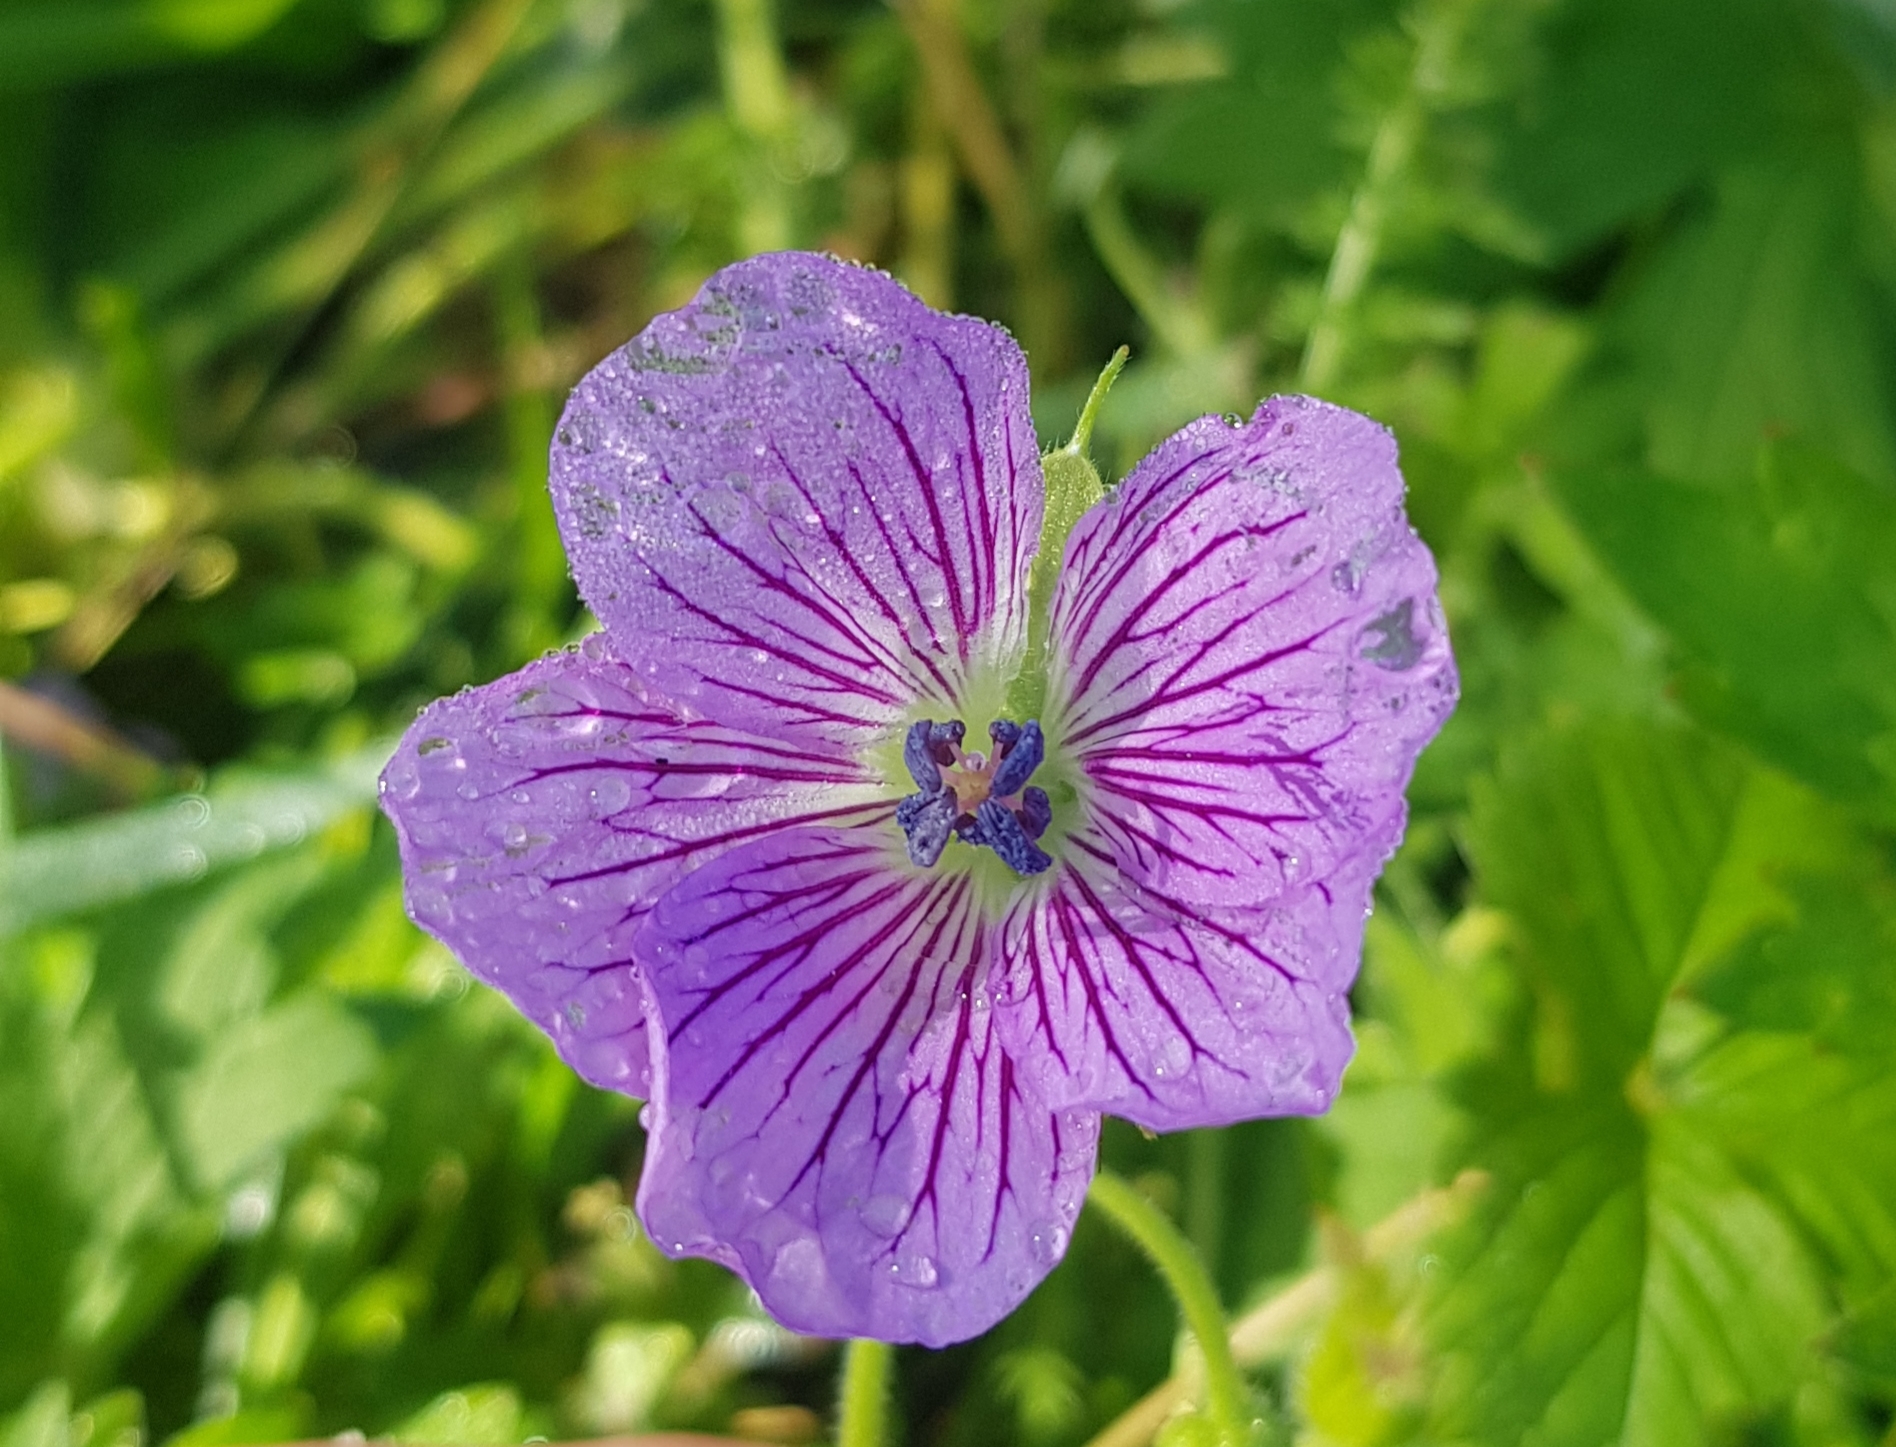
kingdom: Plantae
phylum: Tracheophyta
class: Magnoliopsida
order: Geraniales
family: Geraniaceae
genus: Geranium
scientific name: Geranium wlassovianum
